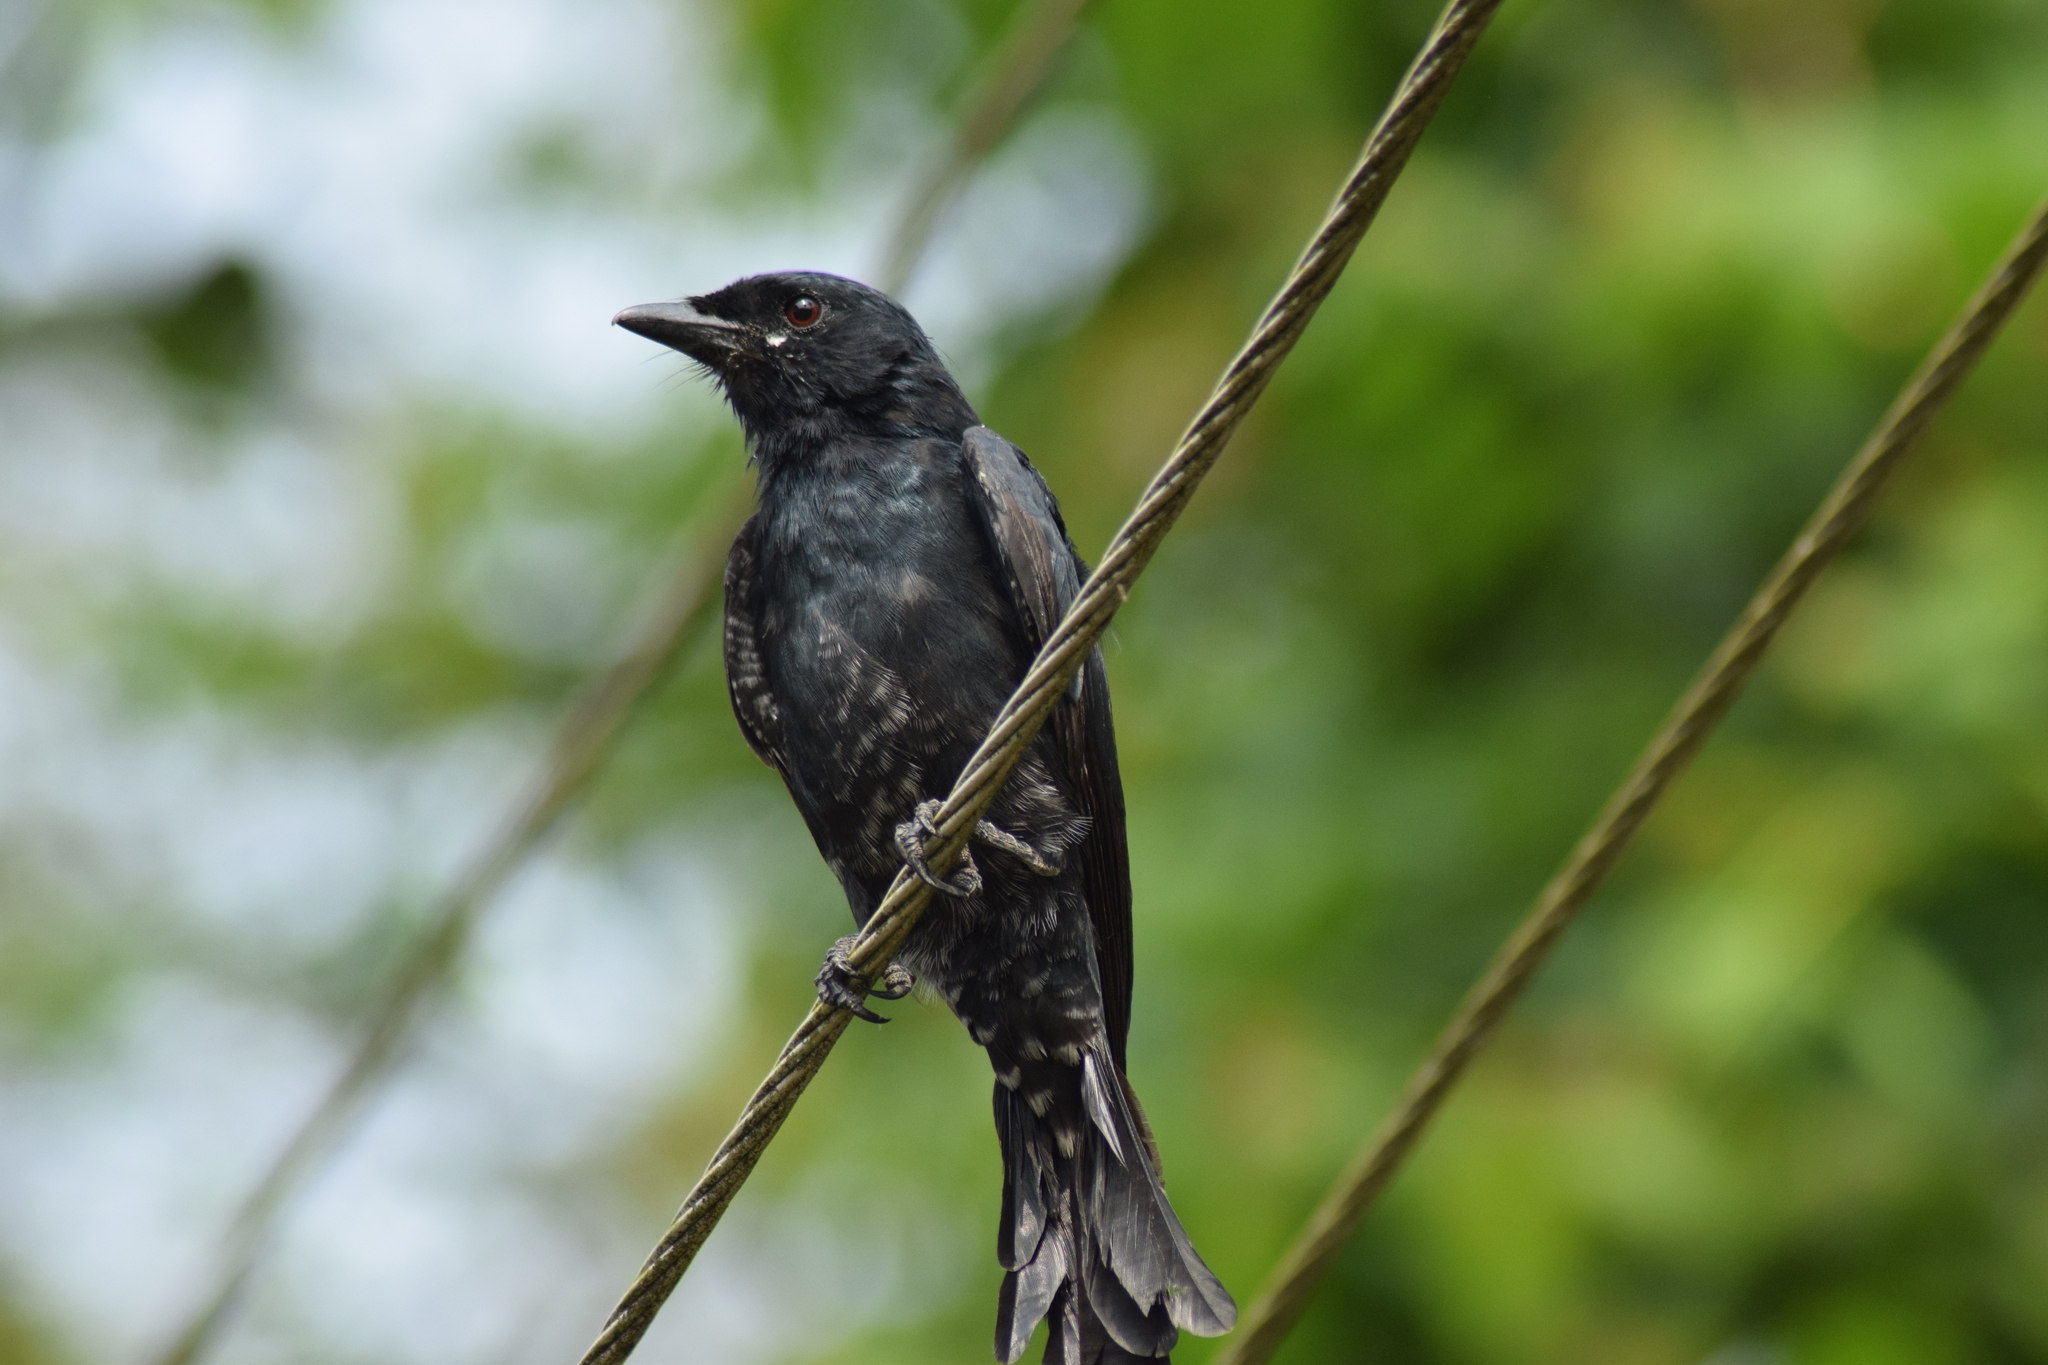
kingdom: Animalia
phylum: Chordata
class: Aves
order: Passeriformes
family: Dicruridae
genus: Dicrurus
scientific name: Dicrurus macrocercus
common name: Black drongo
